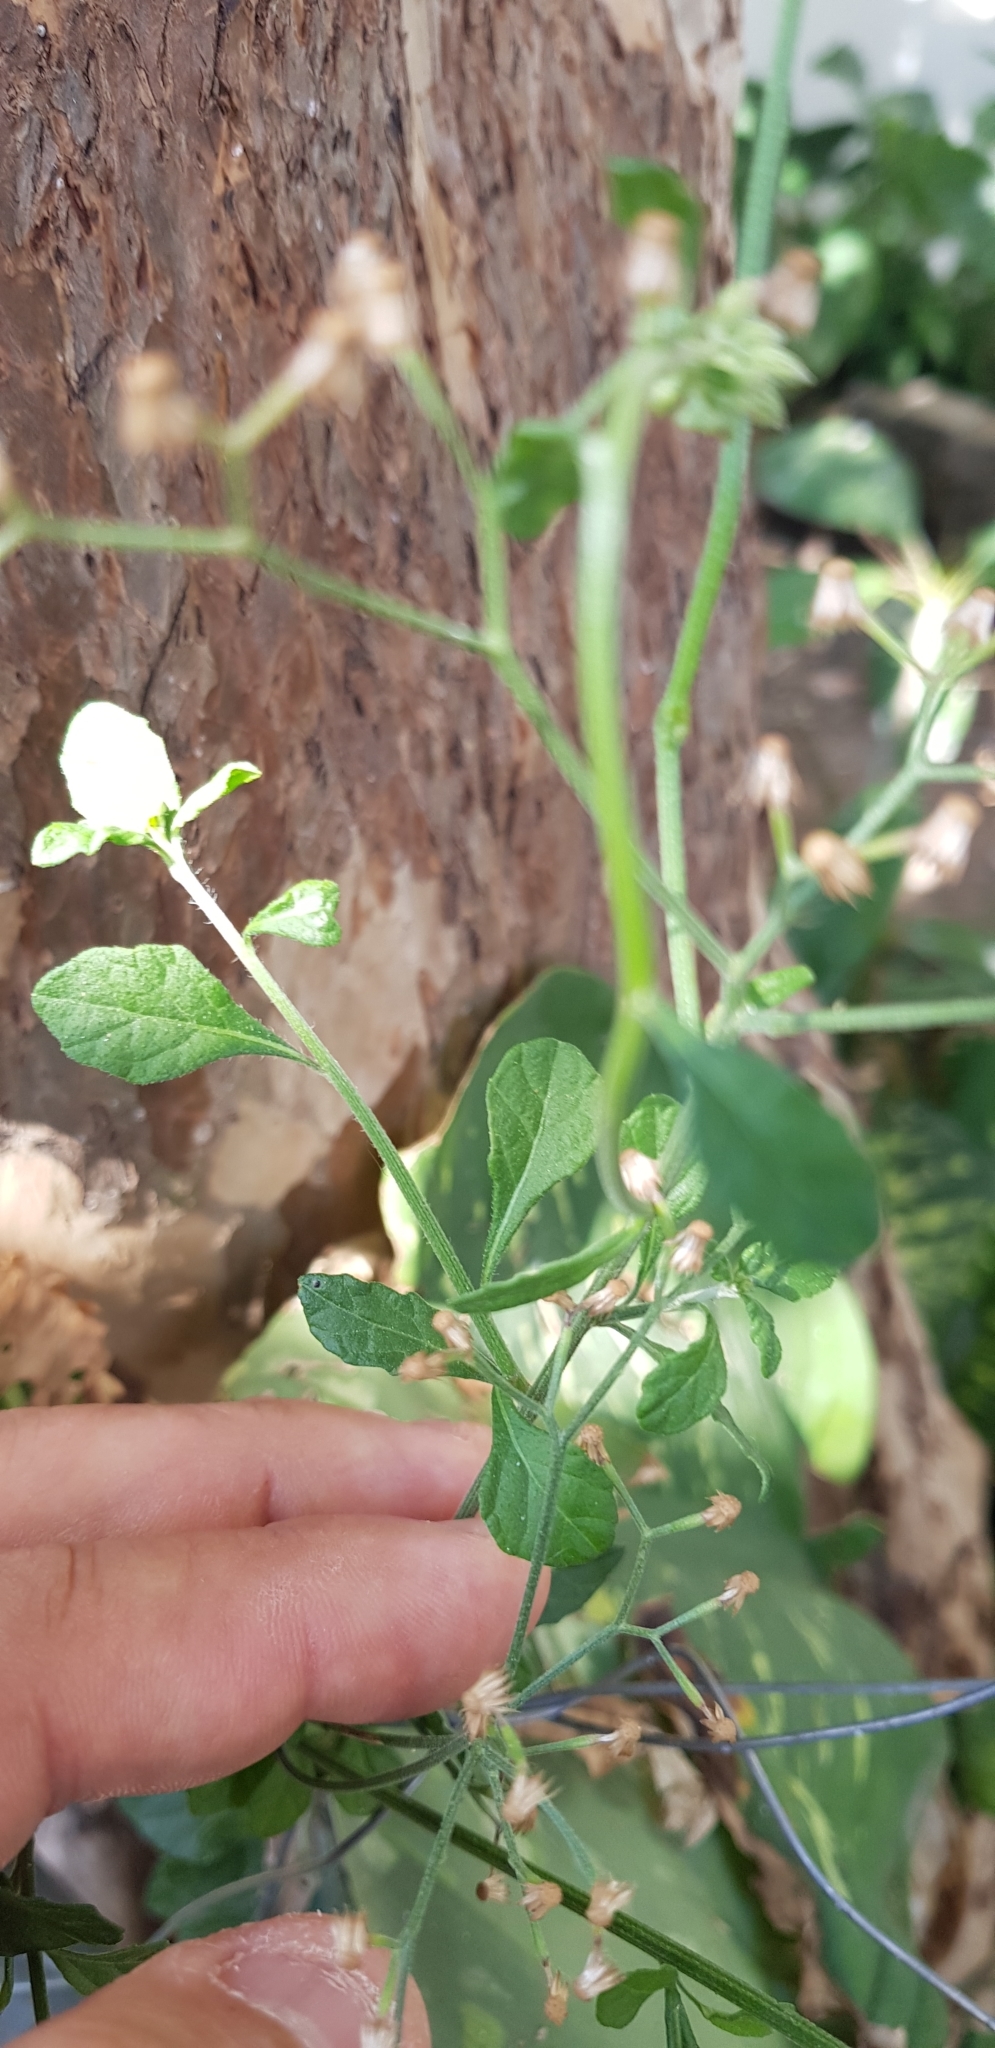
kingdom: Plantae
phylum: Tracheophyta
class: Magnoliopsida
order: Asterales
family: Asteraceae
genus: Cyanthillium
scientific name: Cyanthillium cinereum
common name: Little ironweed
